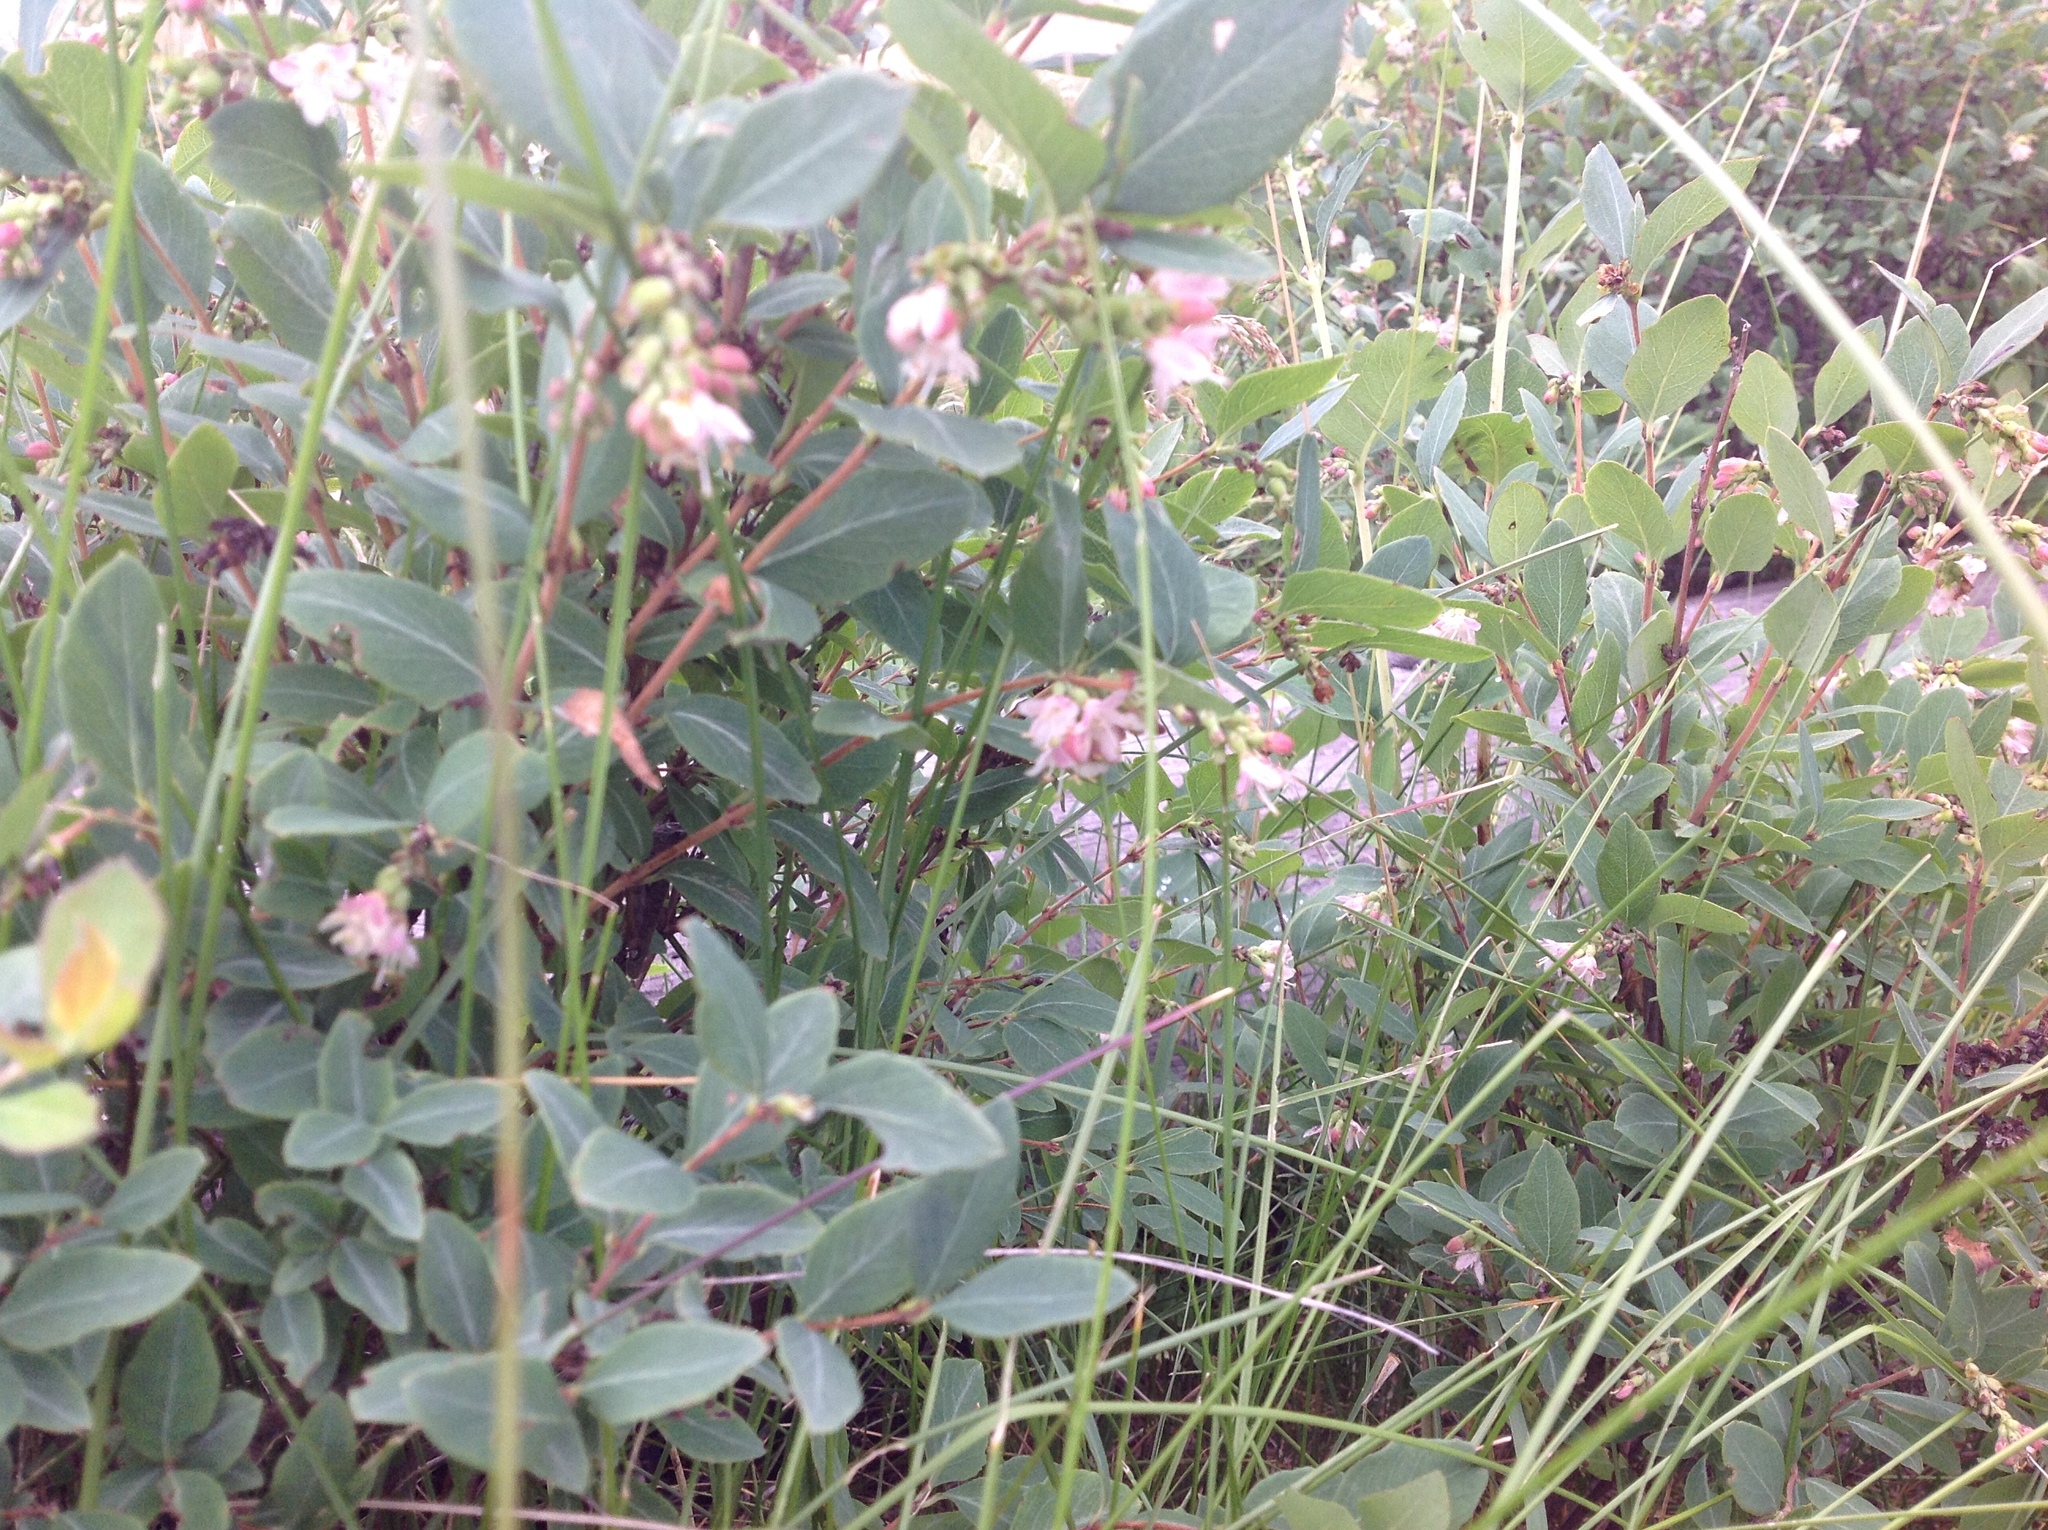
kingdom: Plantae
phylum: Tracheophyta
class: Magnoliopsida
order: Dipsacales
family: Caprifoliaceae
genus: Symphoricarpos
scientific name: Symphoricarpos occidentalis
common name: Wolfberry
